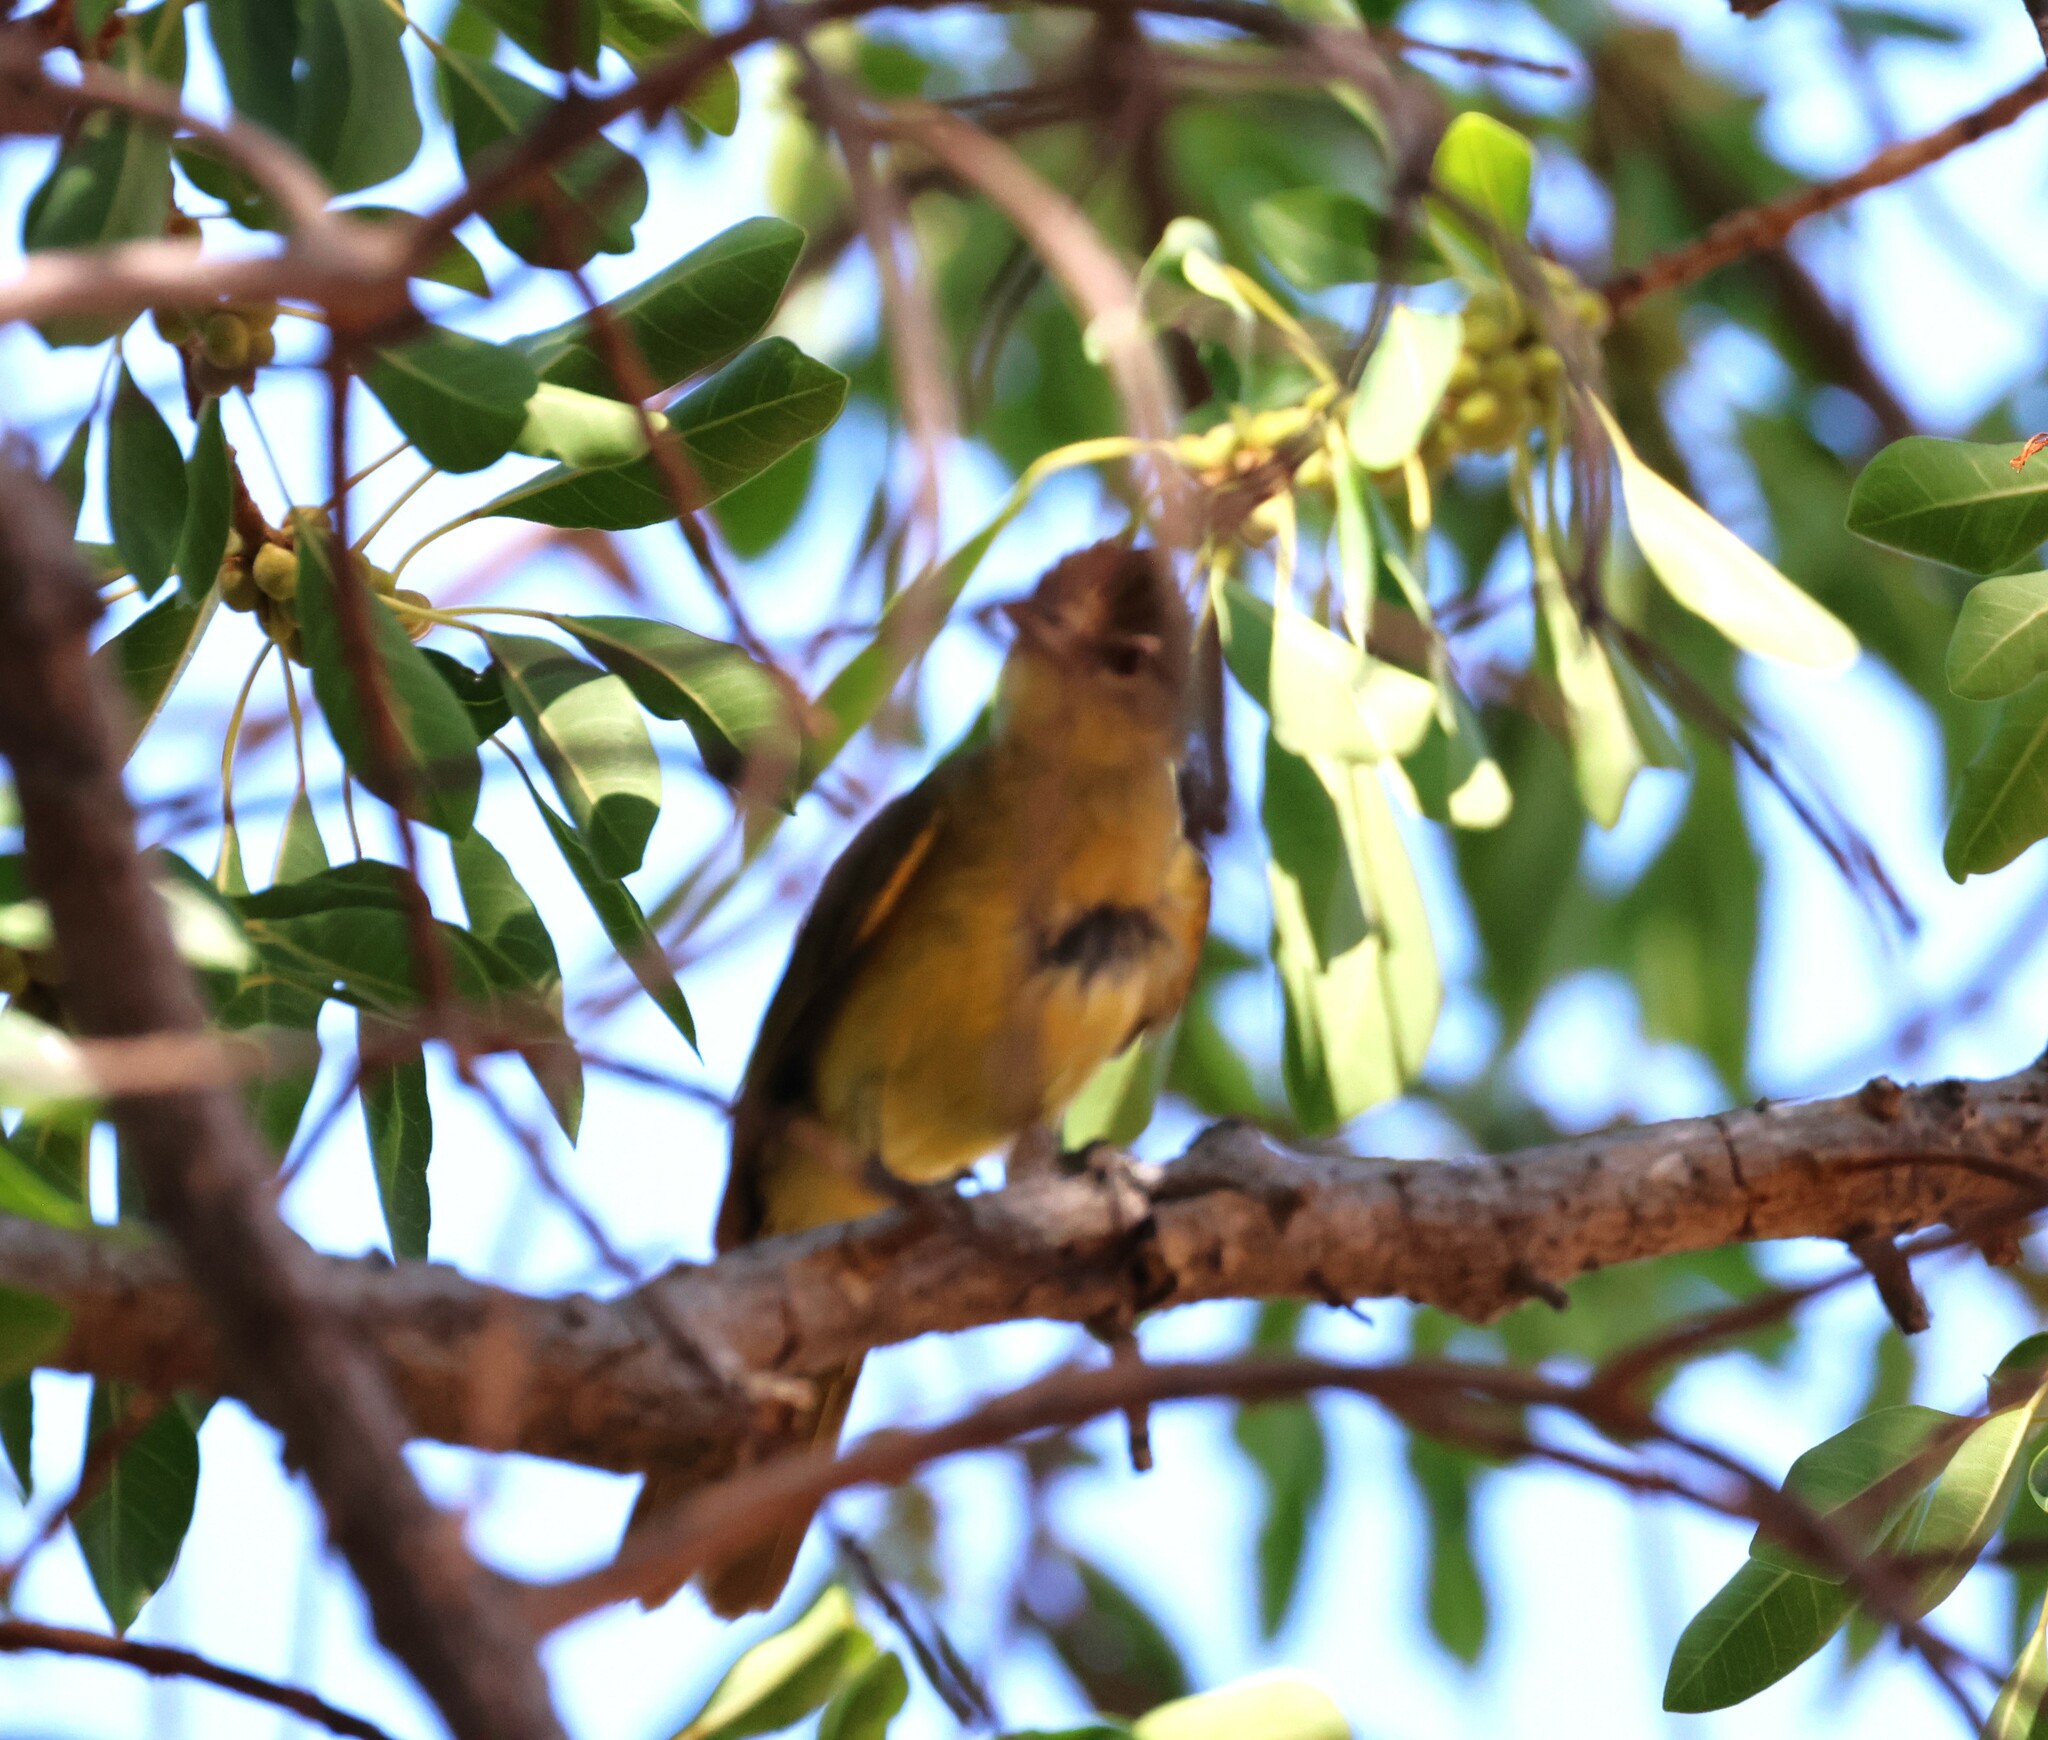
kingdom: Animalia
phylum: Chordata
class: Aves
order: Passeriformes
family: Pycnonotidae
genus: Chlorocichla
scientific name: Chlorocichla flaviventris
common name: Yellow-bellied greenbul
